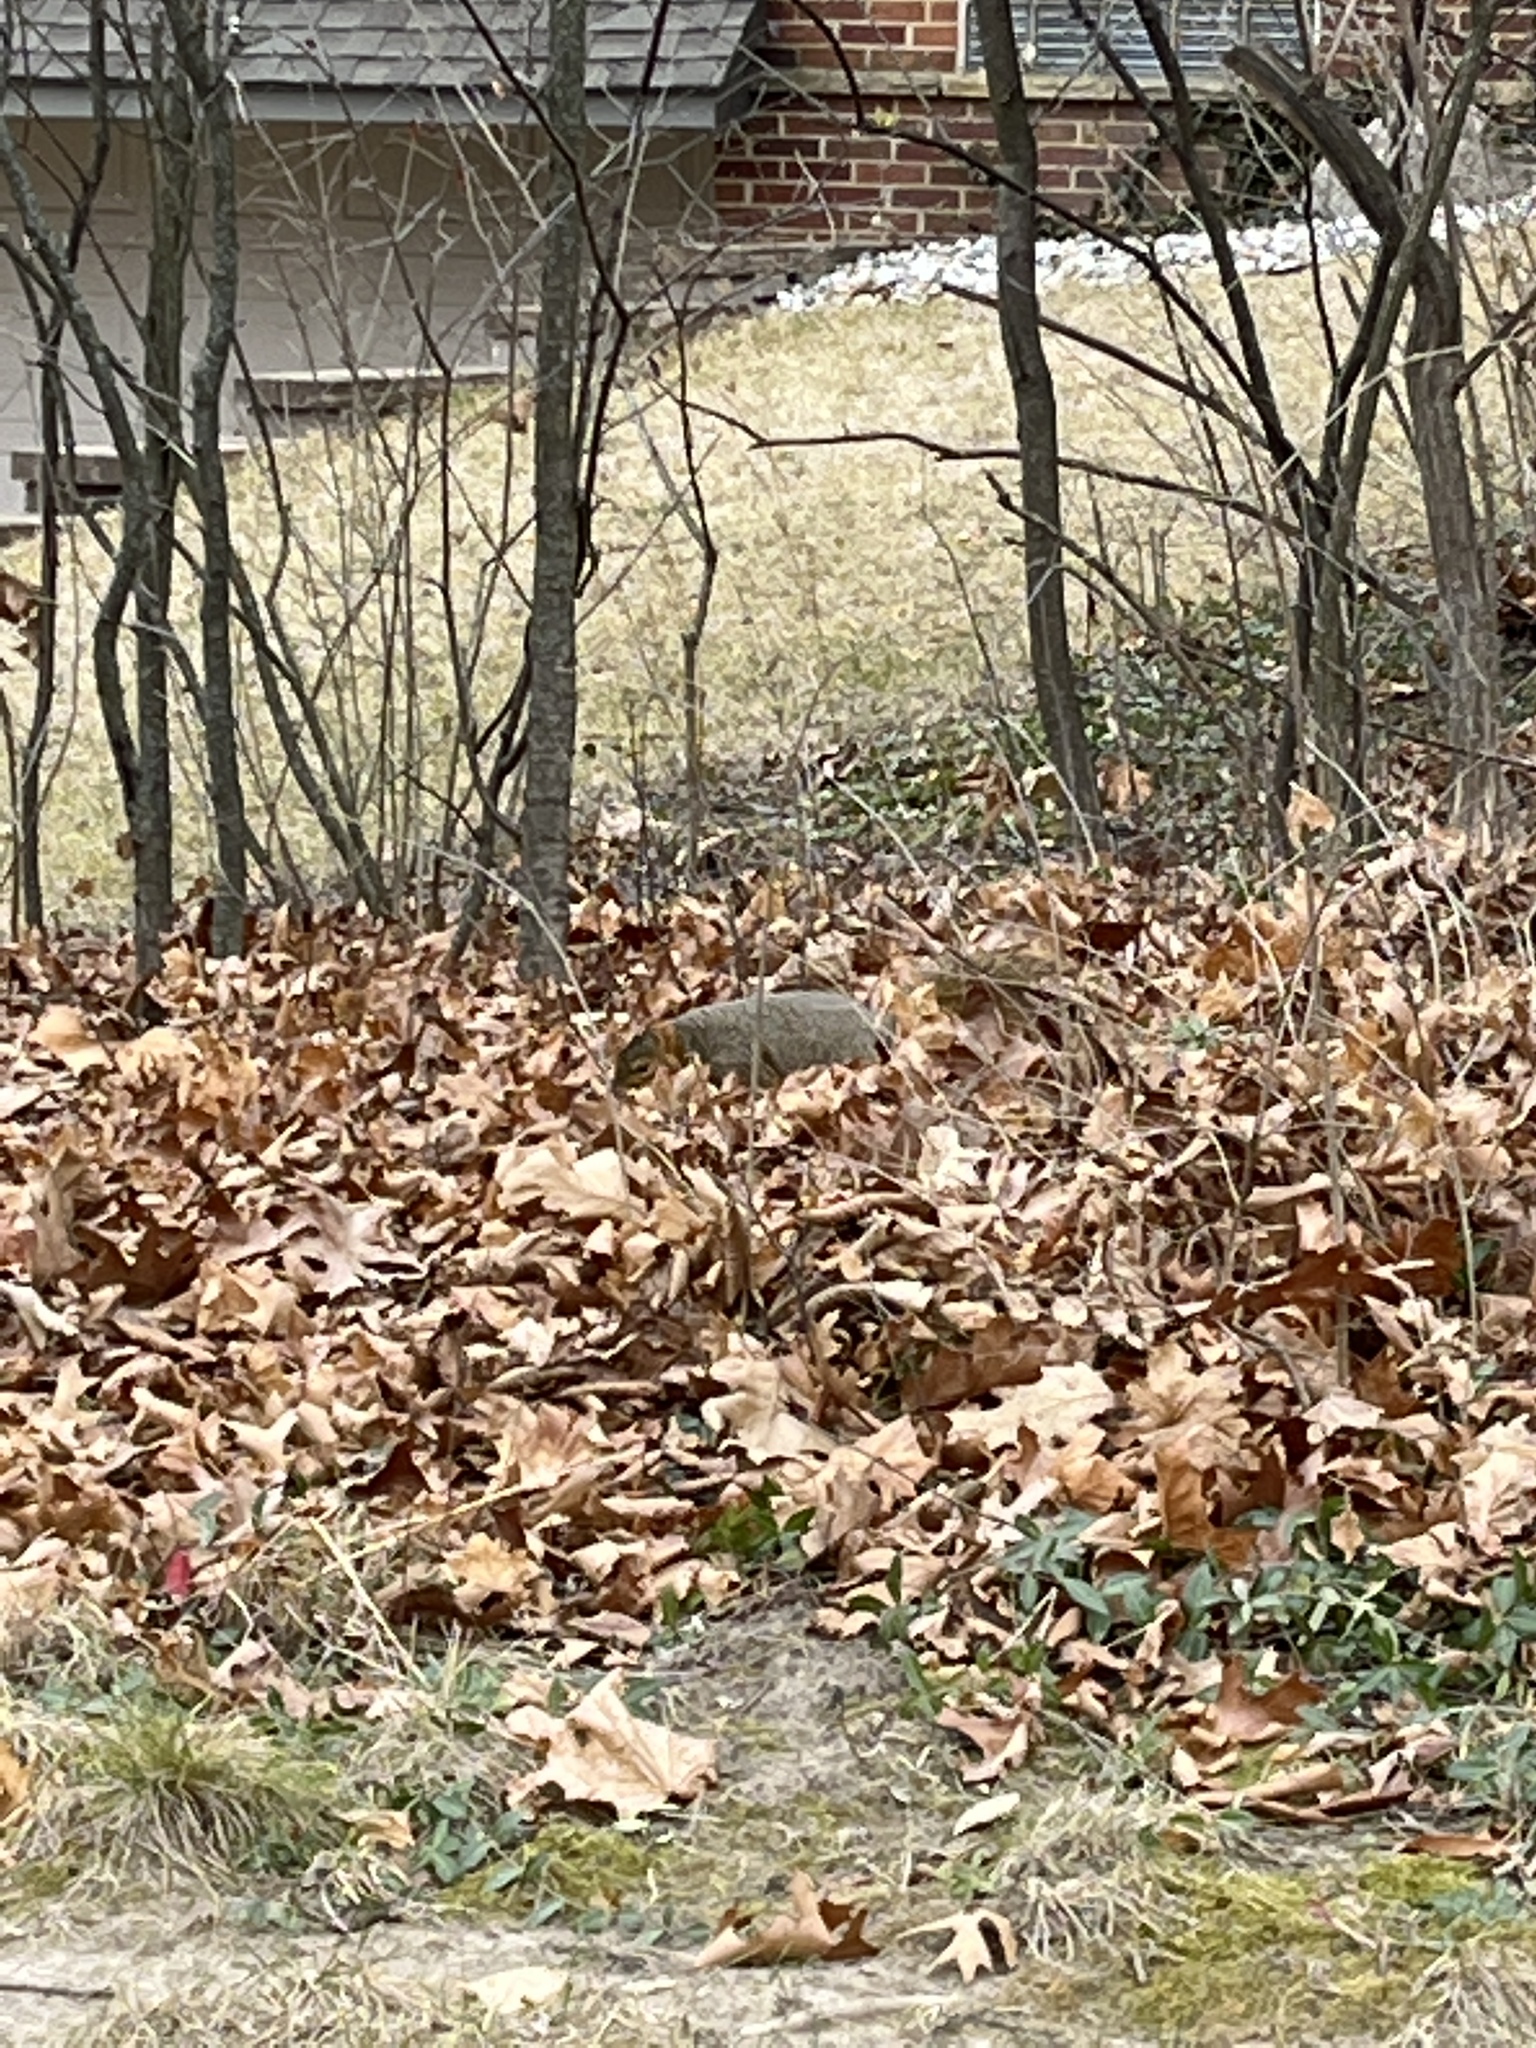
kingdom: Animalia
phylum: Chordata
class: Mammalia
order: Rodentia
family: Sciuridae
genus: Sciurus
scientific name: Sciurus niger
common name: Fox squirrel
